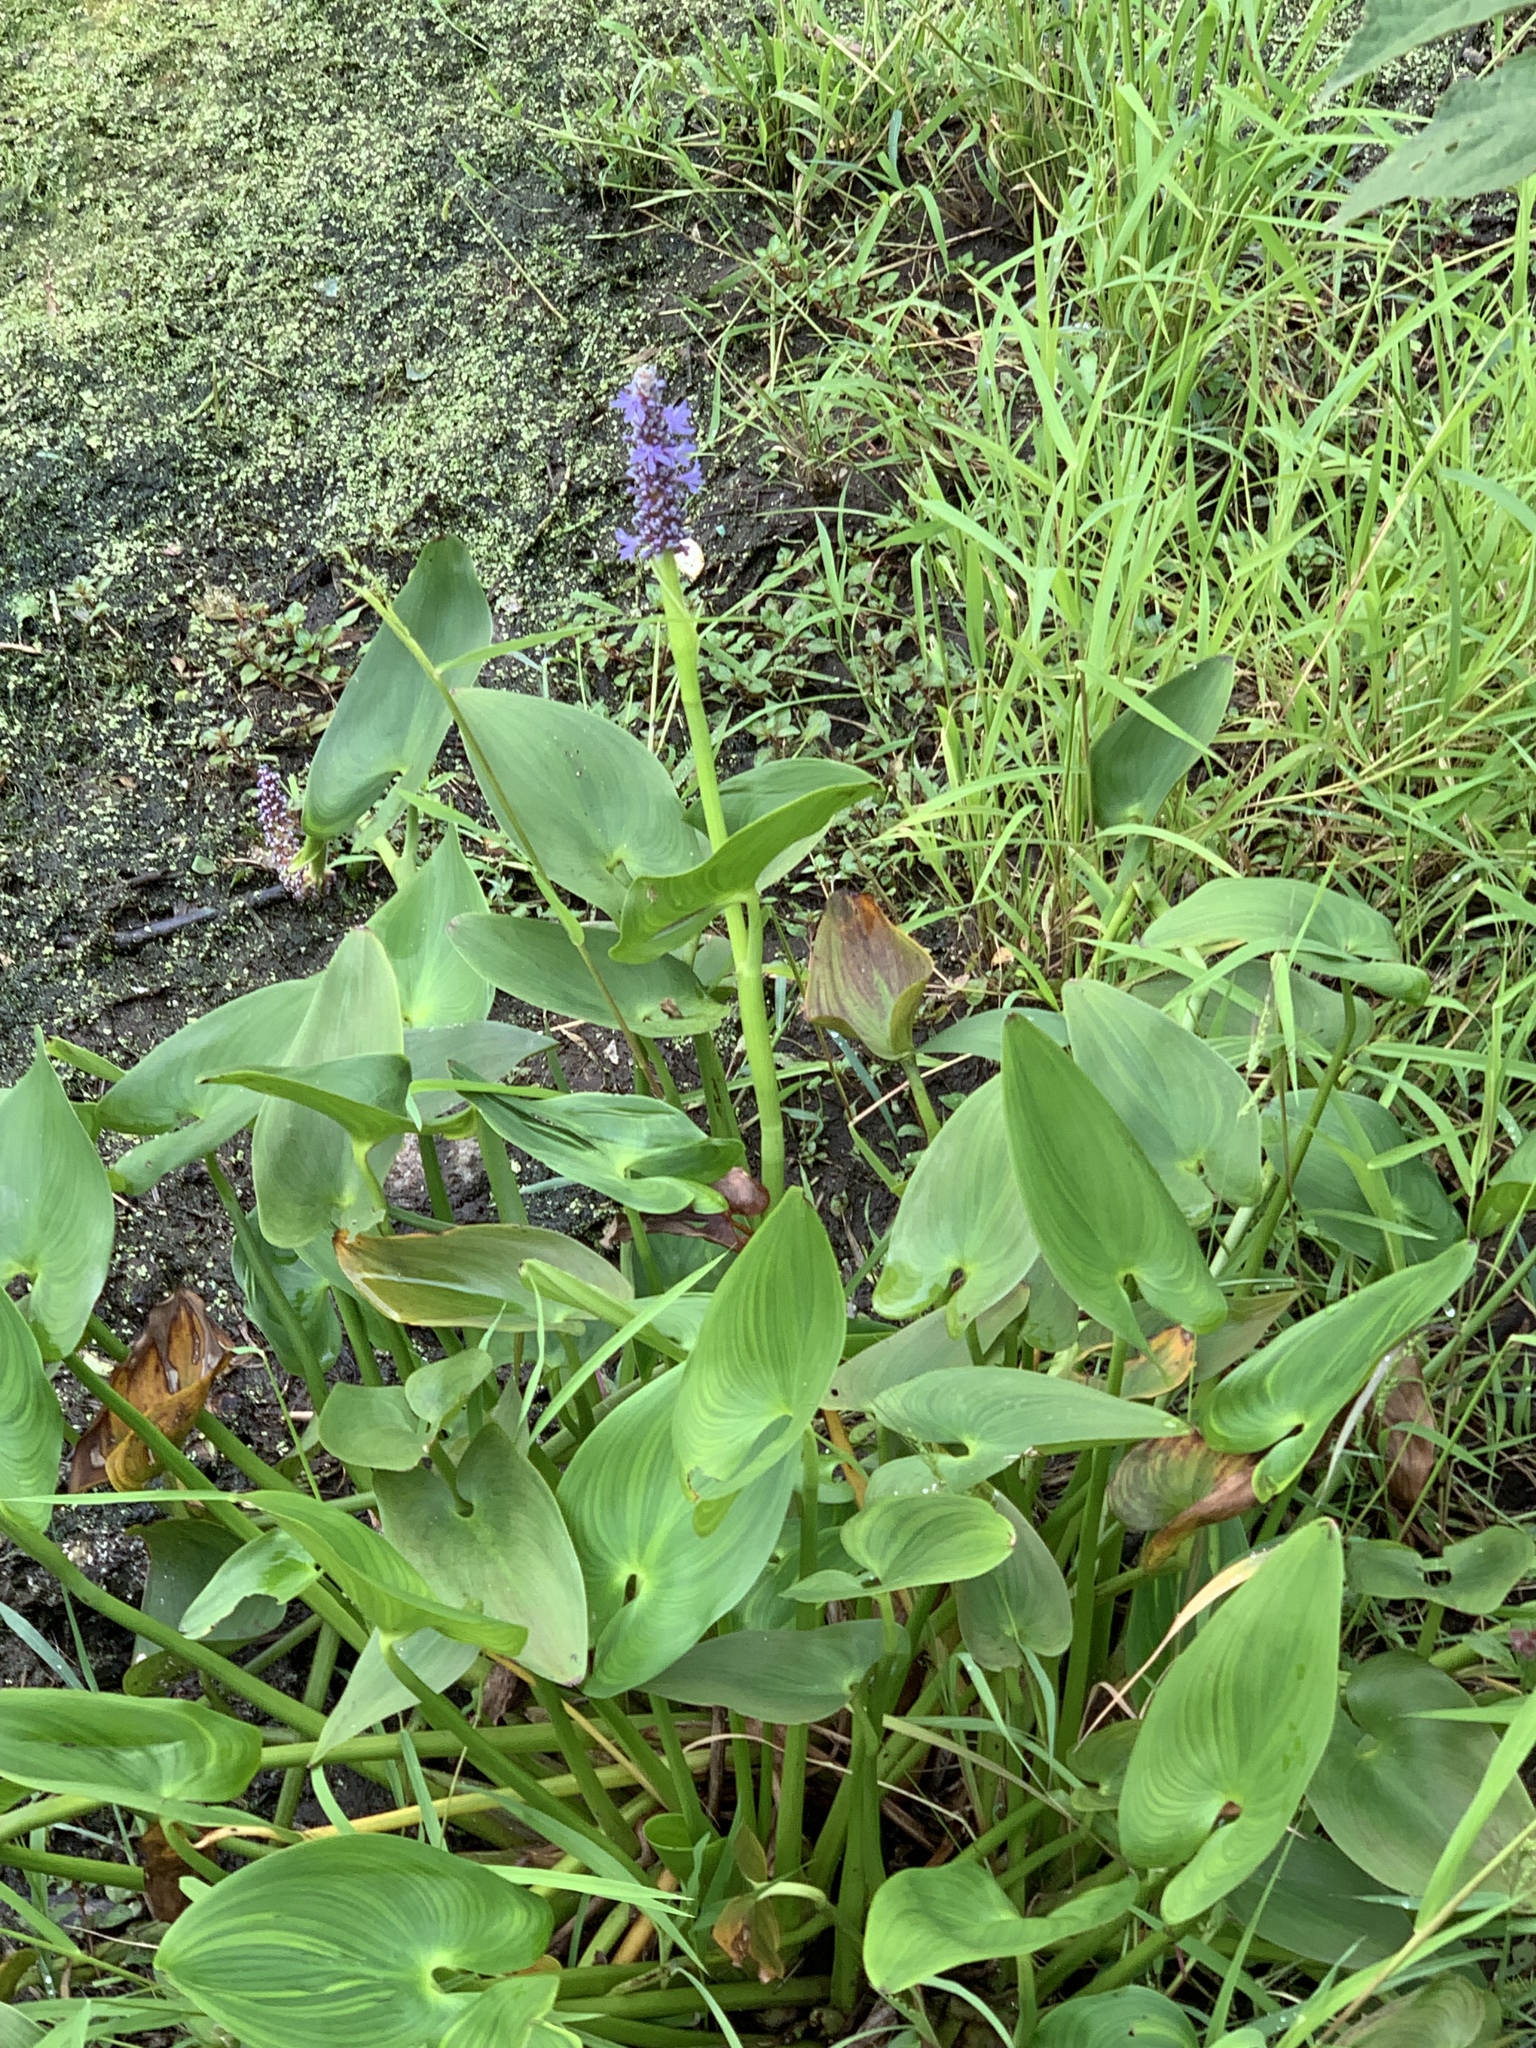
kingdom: Plantae
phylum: Tracheophyta
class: Liliopsida
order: Commelinales
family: Pontederiaceae
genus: Pontederia
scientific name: Pontederia cordata
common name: Pickerelweed
